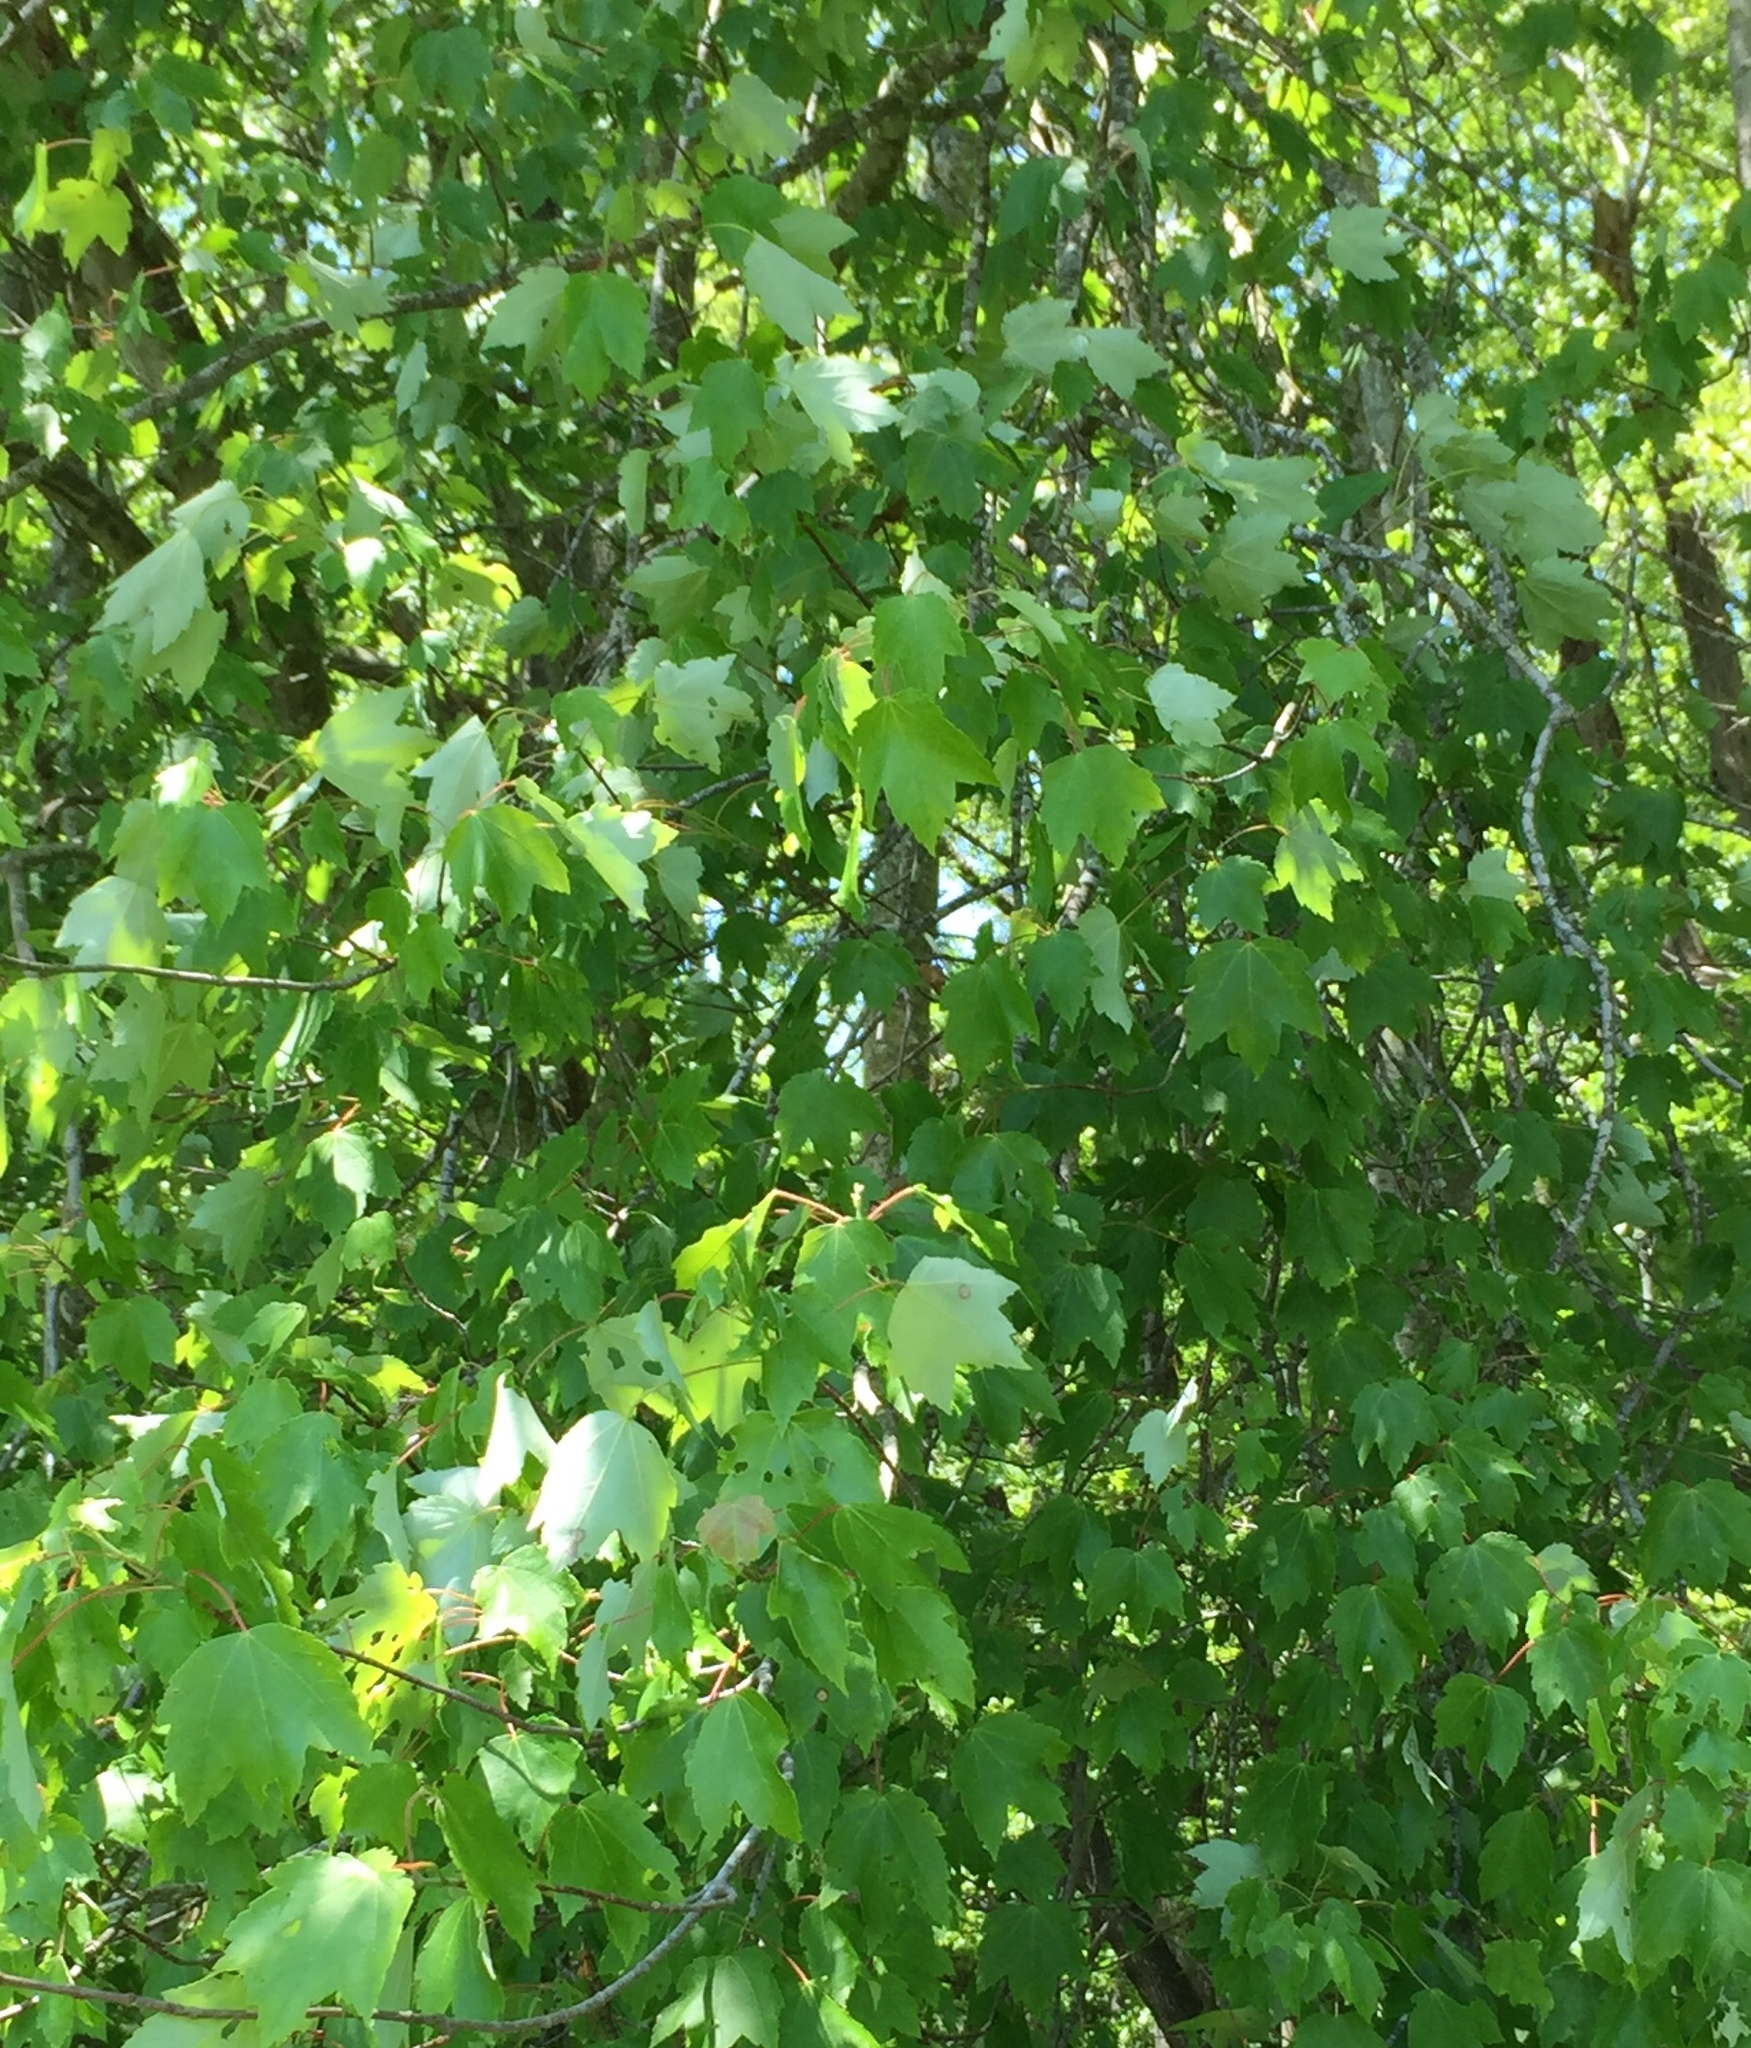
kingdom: Plantae
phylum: Tracheophyta
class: Magnoliopsida
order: Sapindales
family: Sapindaceae
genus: Acer
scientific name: Acer rubrum
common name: Red maple
